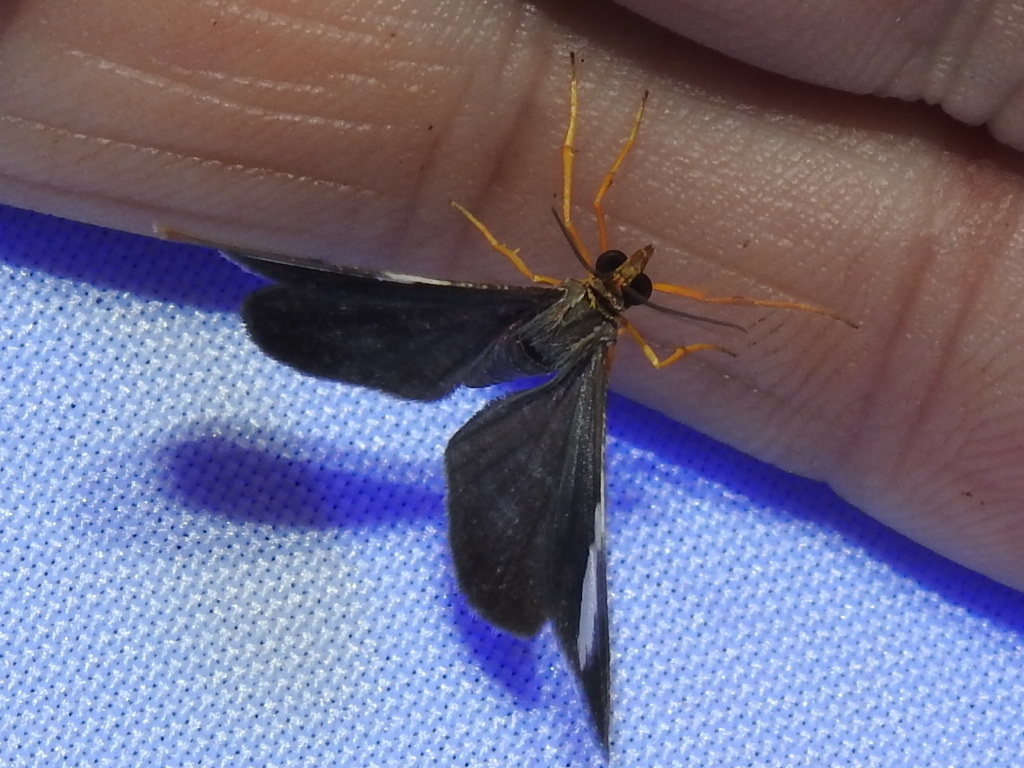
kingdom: Animalia
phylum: Arthropoda
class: Insecta
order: Lepidoptera
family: Geometridae
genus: Hagnagora
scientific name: Hagnagora mortipax
